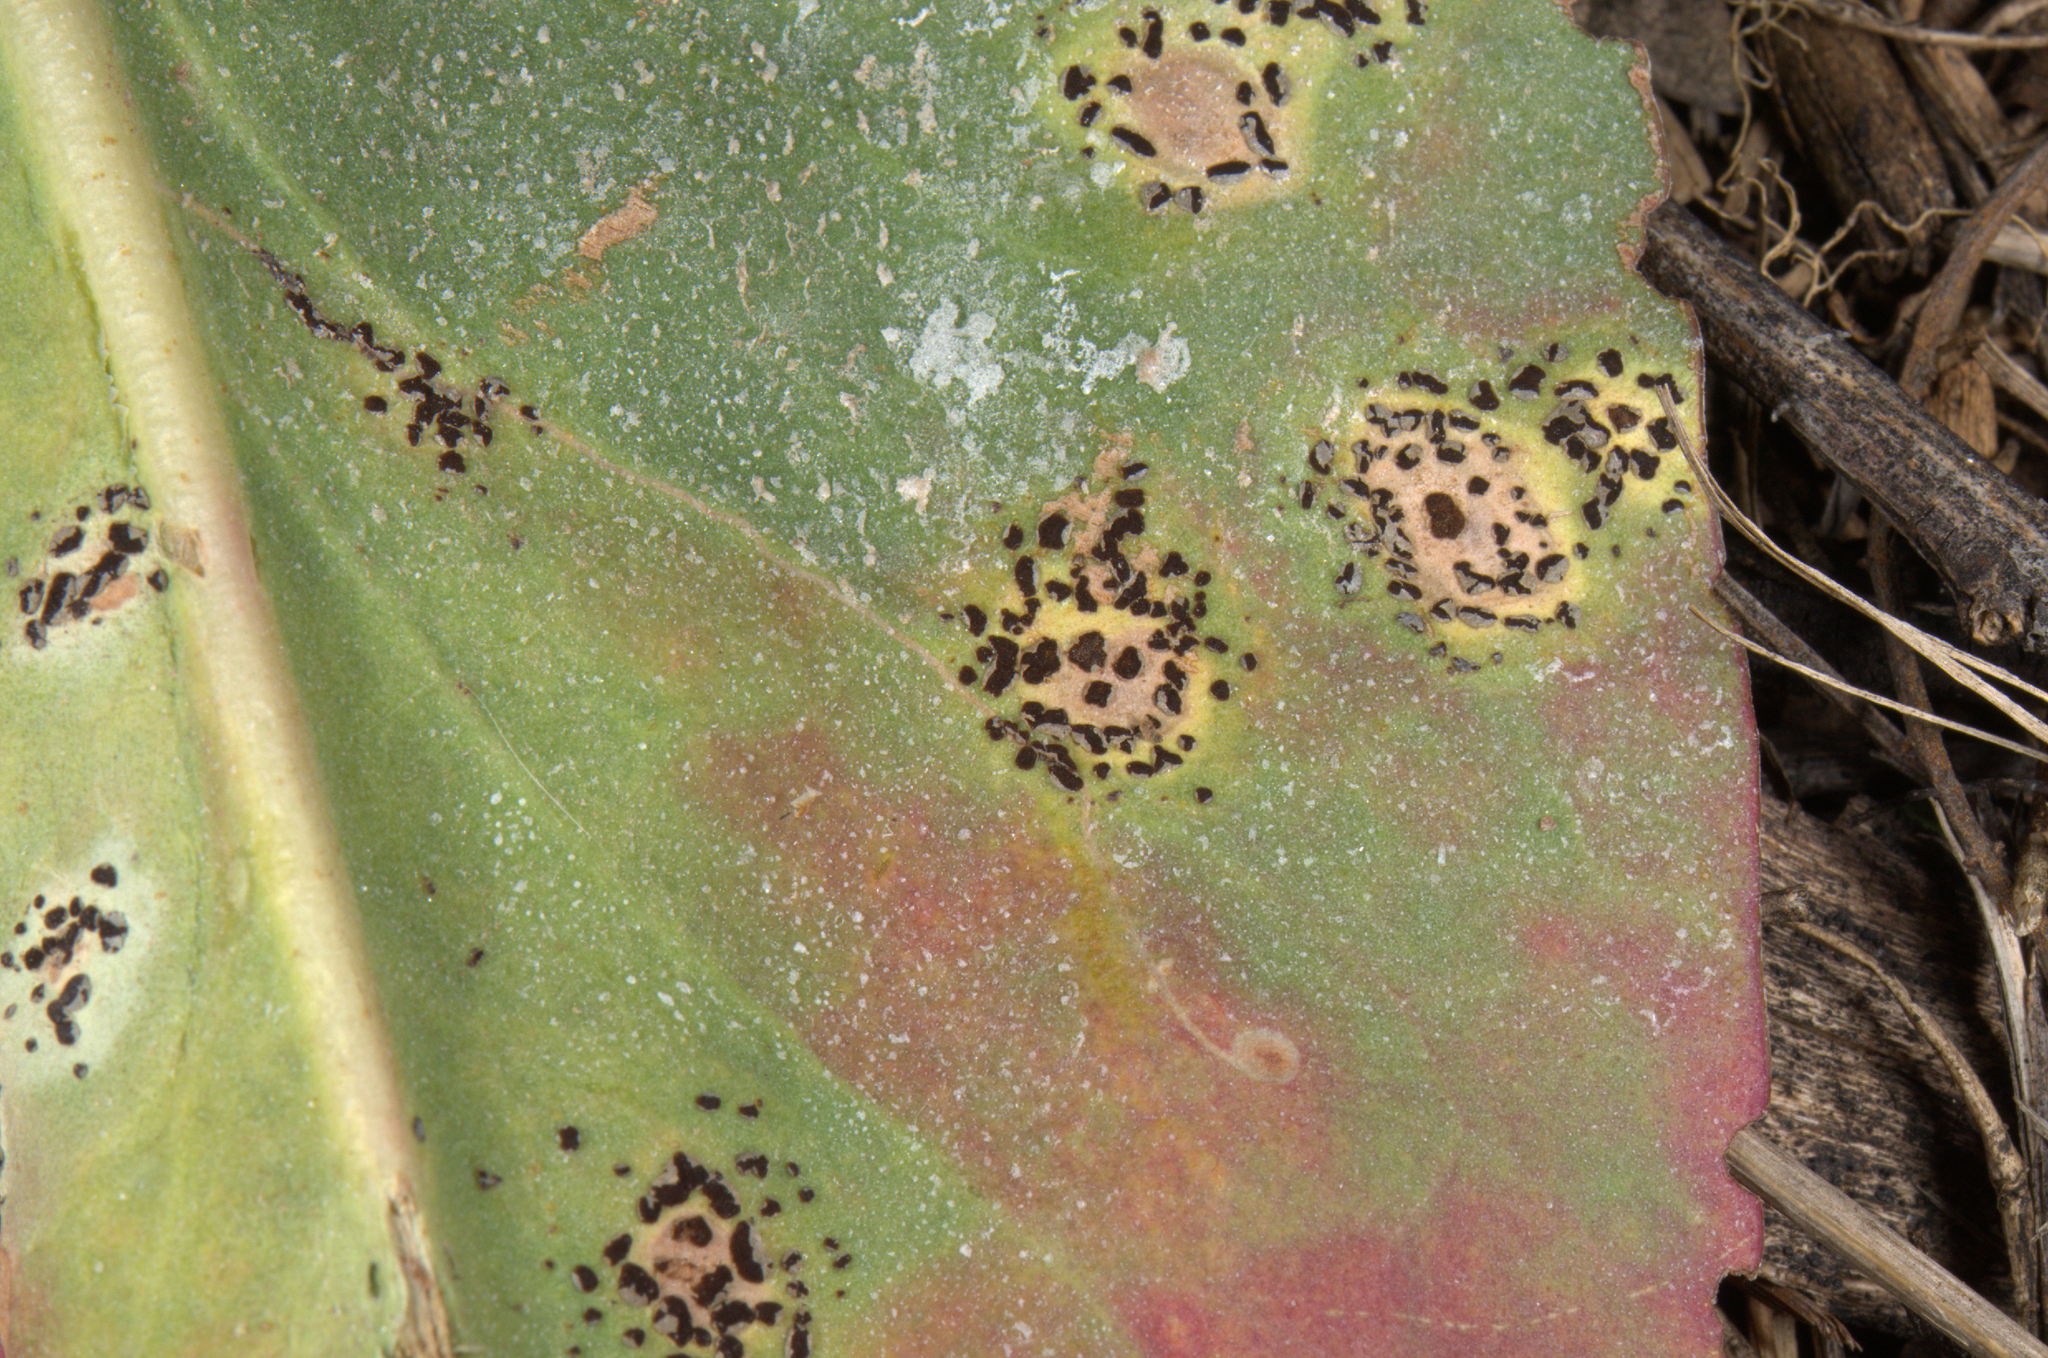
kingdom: Fungi
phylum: Basidiomycota
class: Pucciniomycetes
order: Pucciniales
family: Pucciniaceae
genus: Uromyces
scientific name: Uromyces limonii
